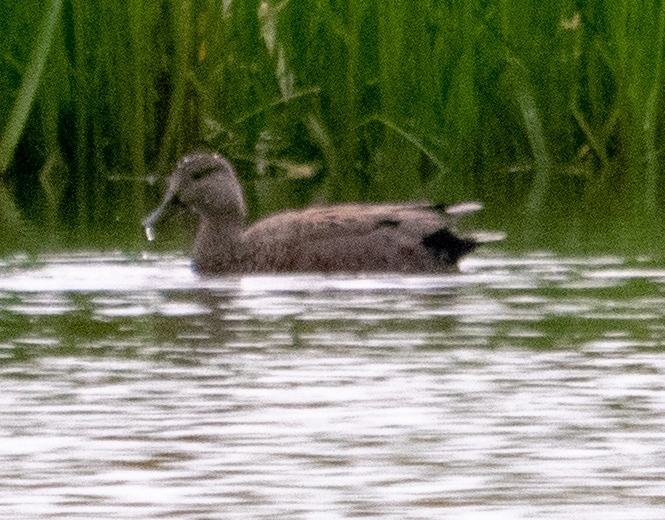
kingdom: Animalia
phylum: Chordata
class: Aves
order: Anseriformes
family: Anatidae
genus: Mareca
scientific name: Mareca strepera
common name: Gadwall
